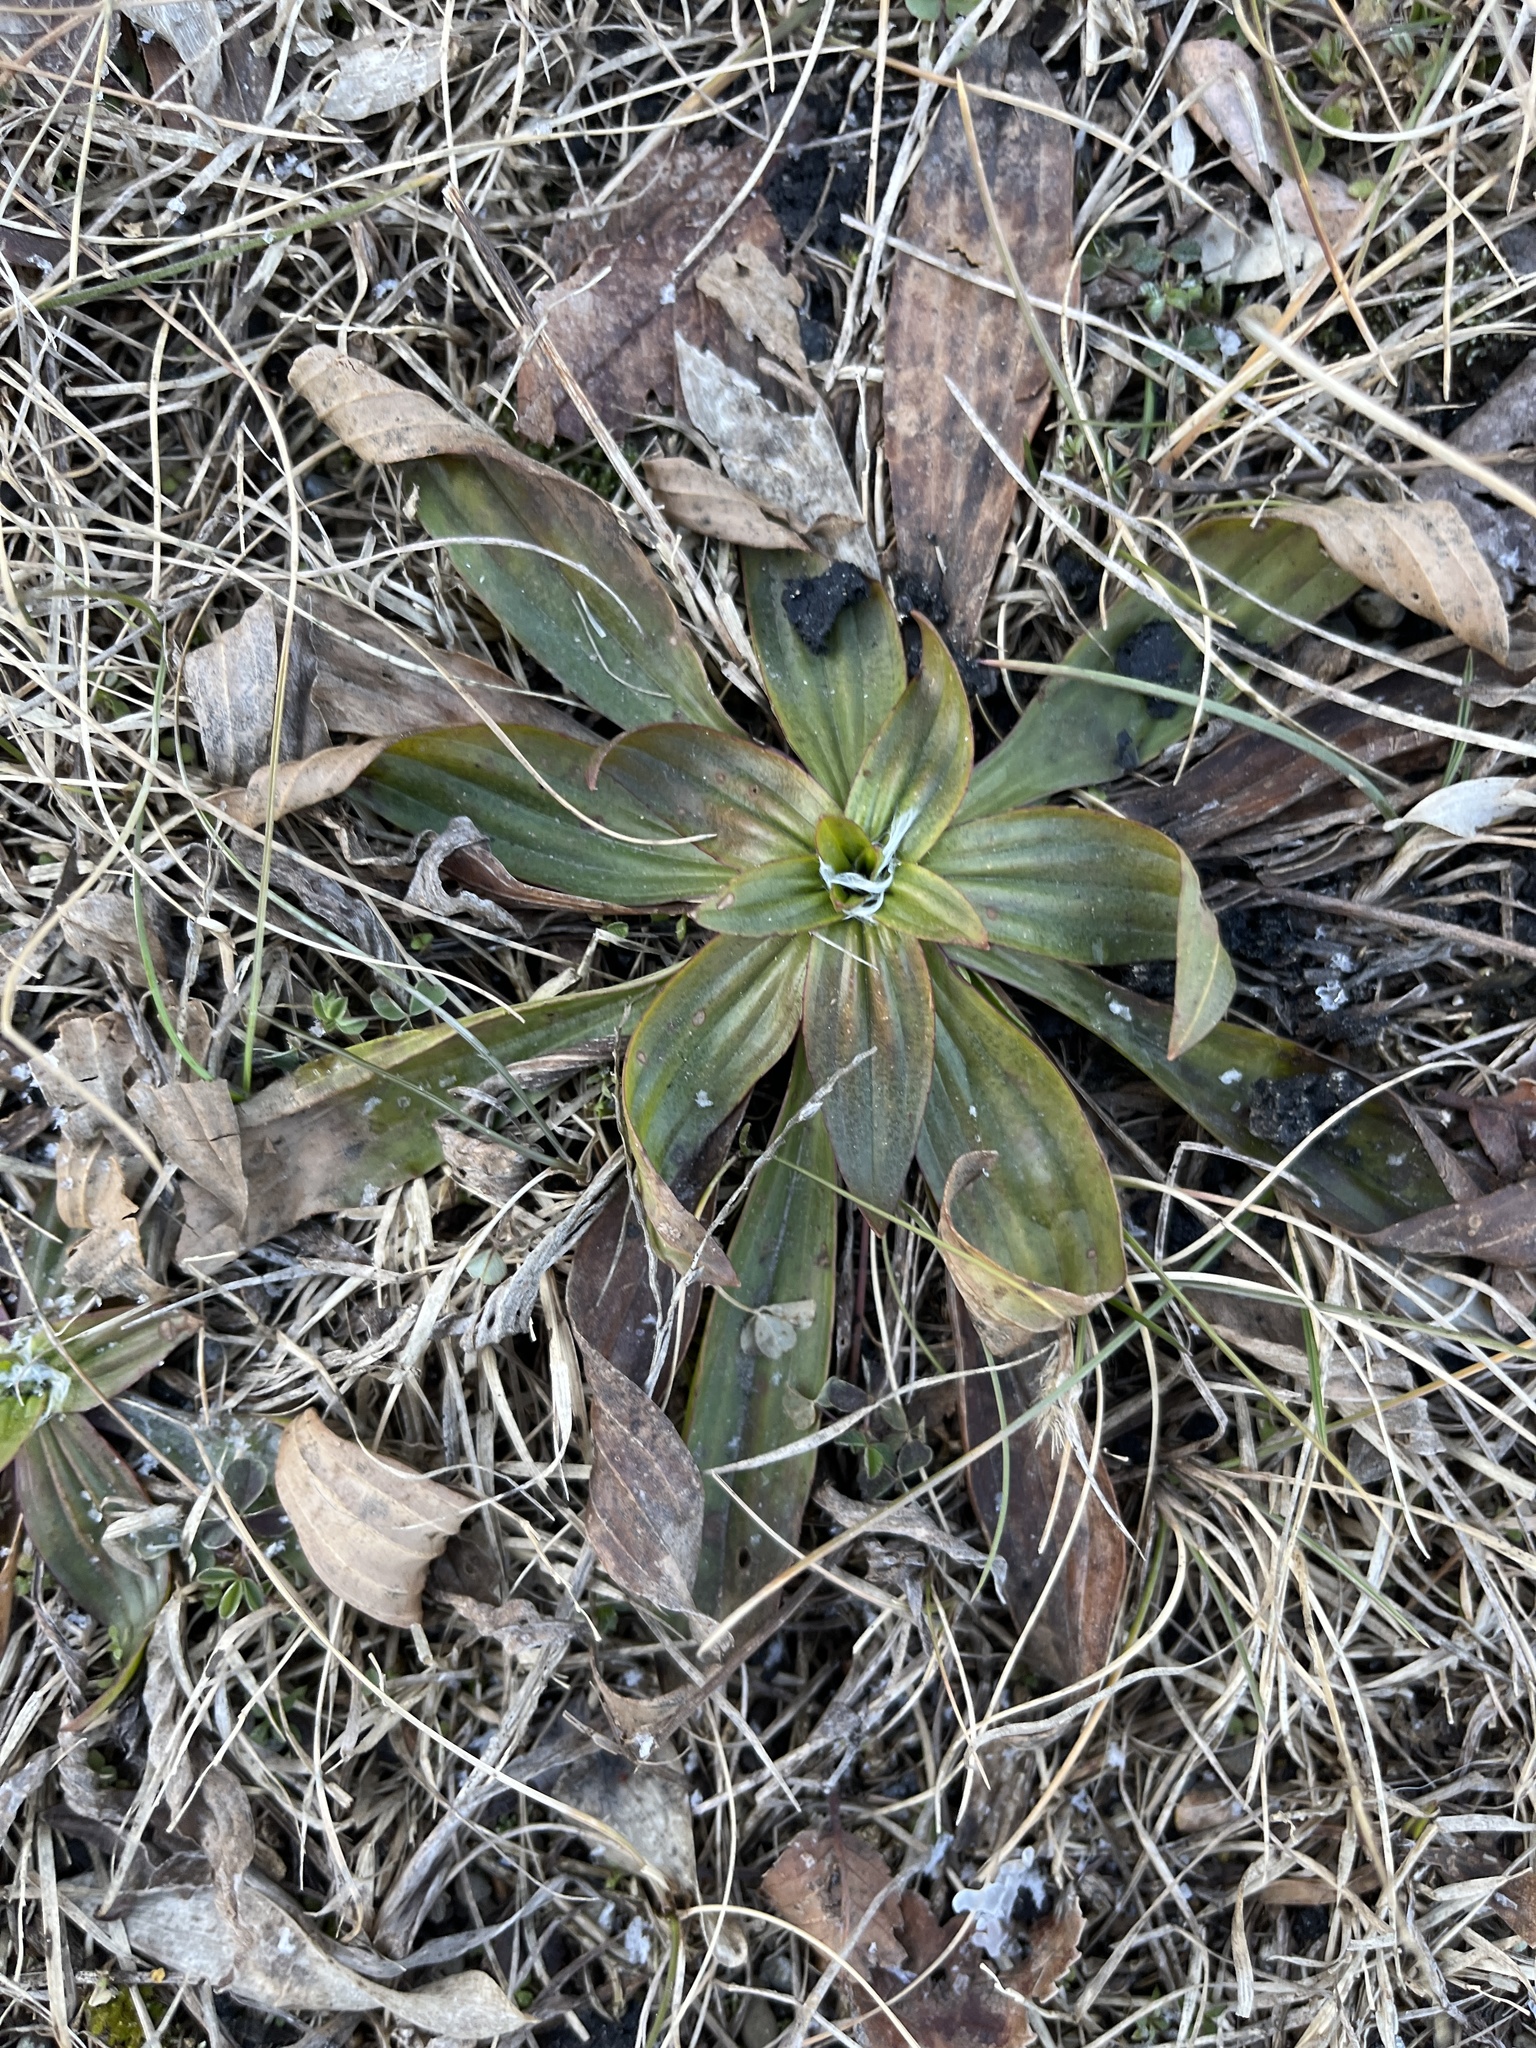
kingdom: Plantae
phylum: Tracheophyta
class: Magnoliopsida
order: Lamiales
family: Plantaginaceae
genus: Plantago
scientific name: Plantago lanceolata
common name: Ribwort plantain
